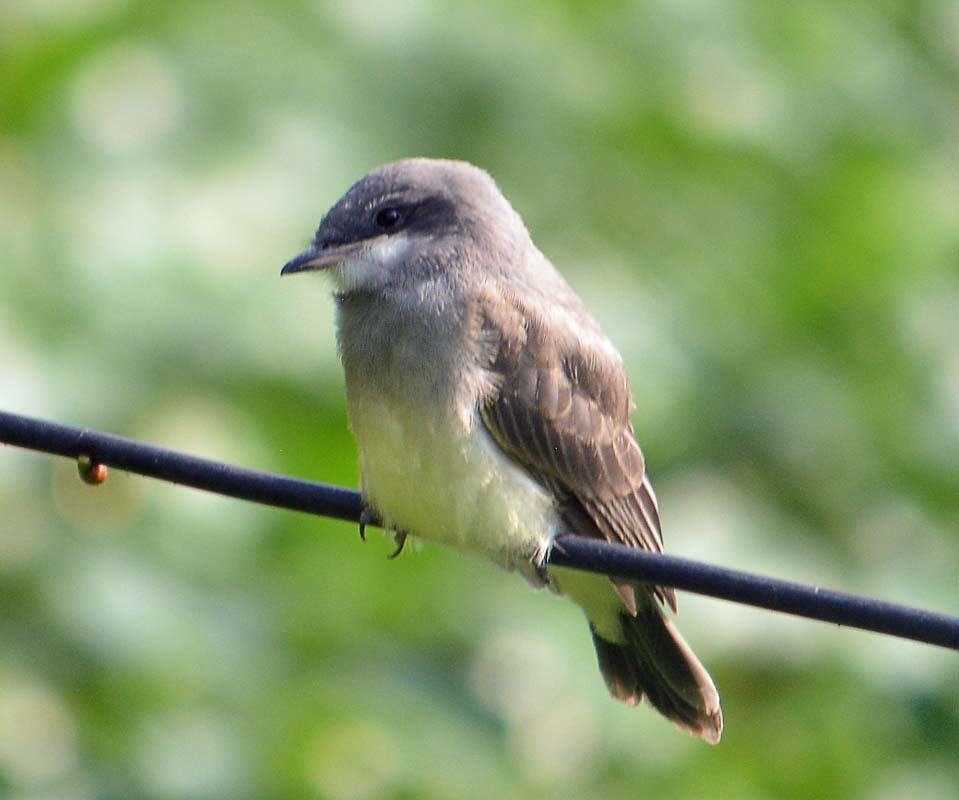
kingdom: Animalia
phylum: Chordata
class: Aves
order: Passeriformes
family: Tyrannidae
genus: Tyrannus
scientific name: Tyrannus vociferans
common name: Cassin's kingbird
